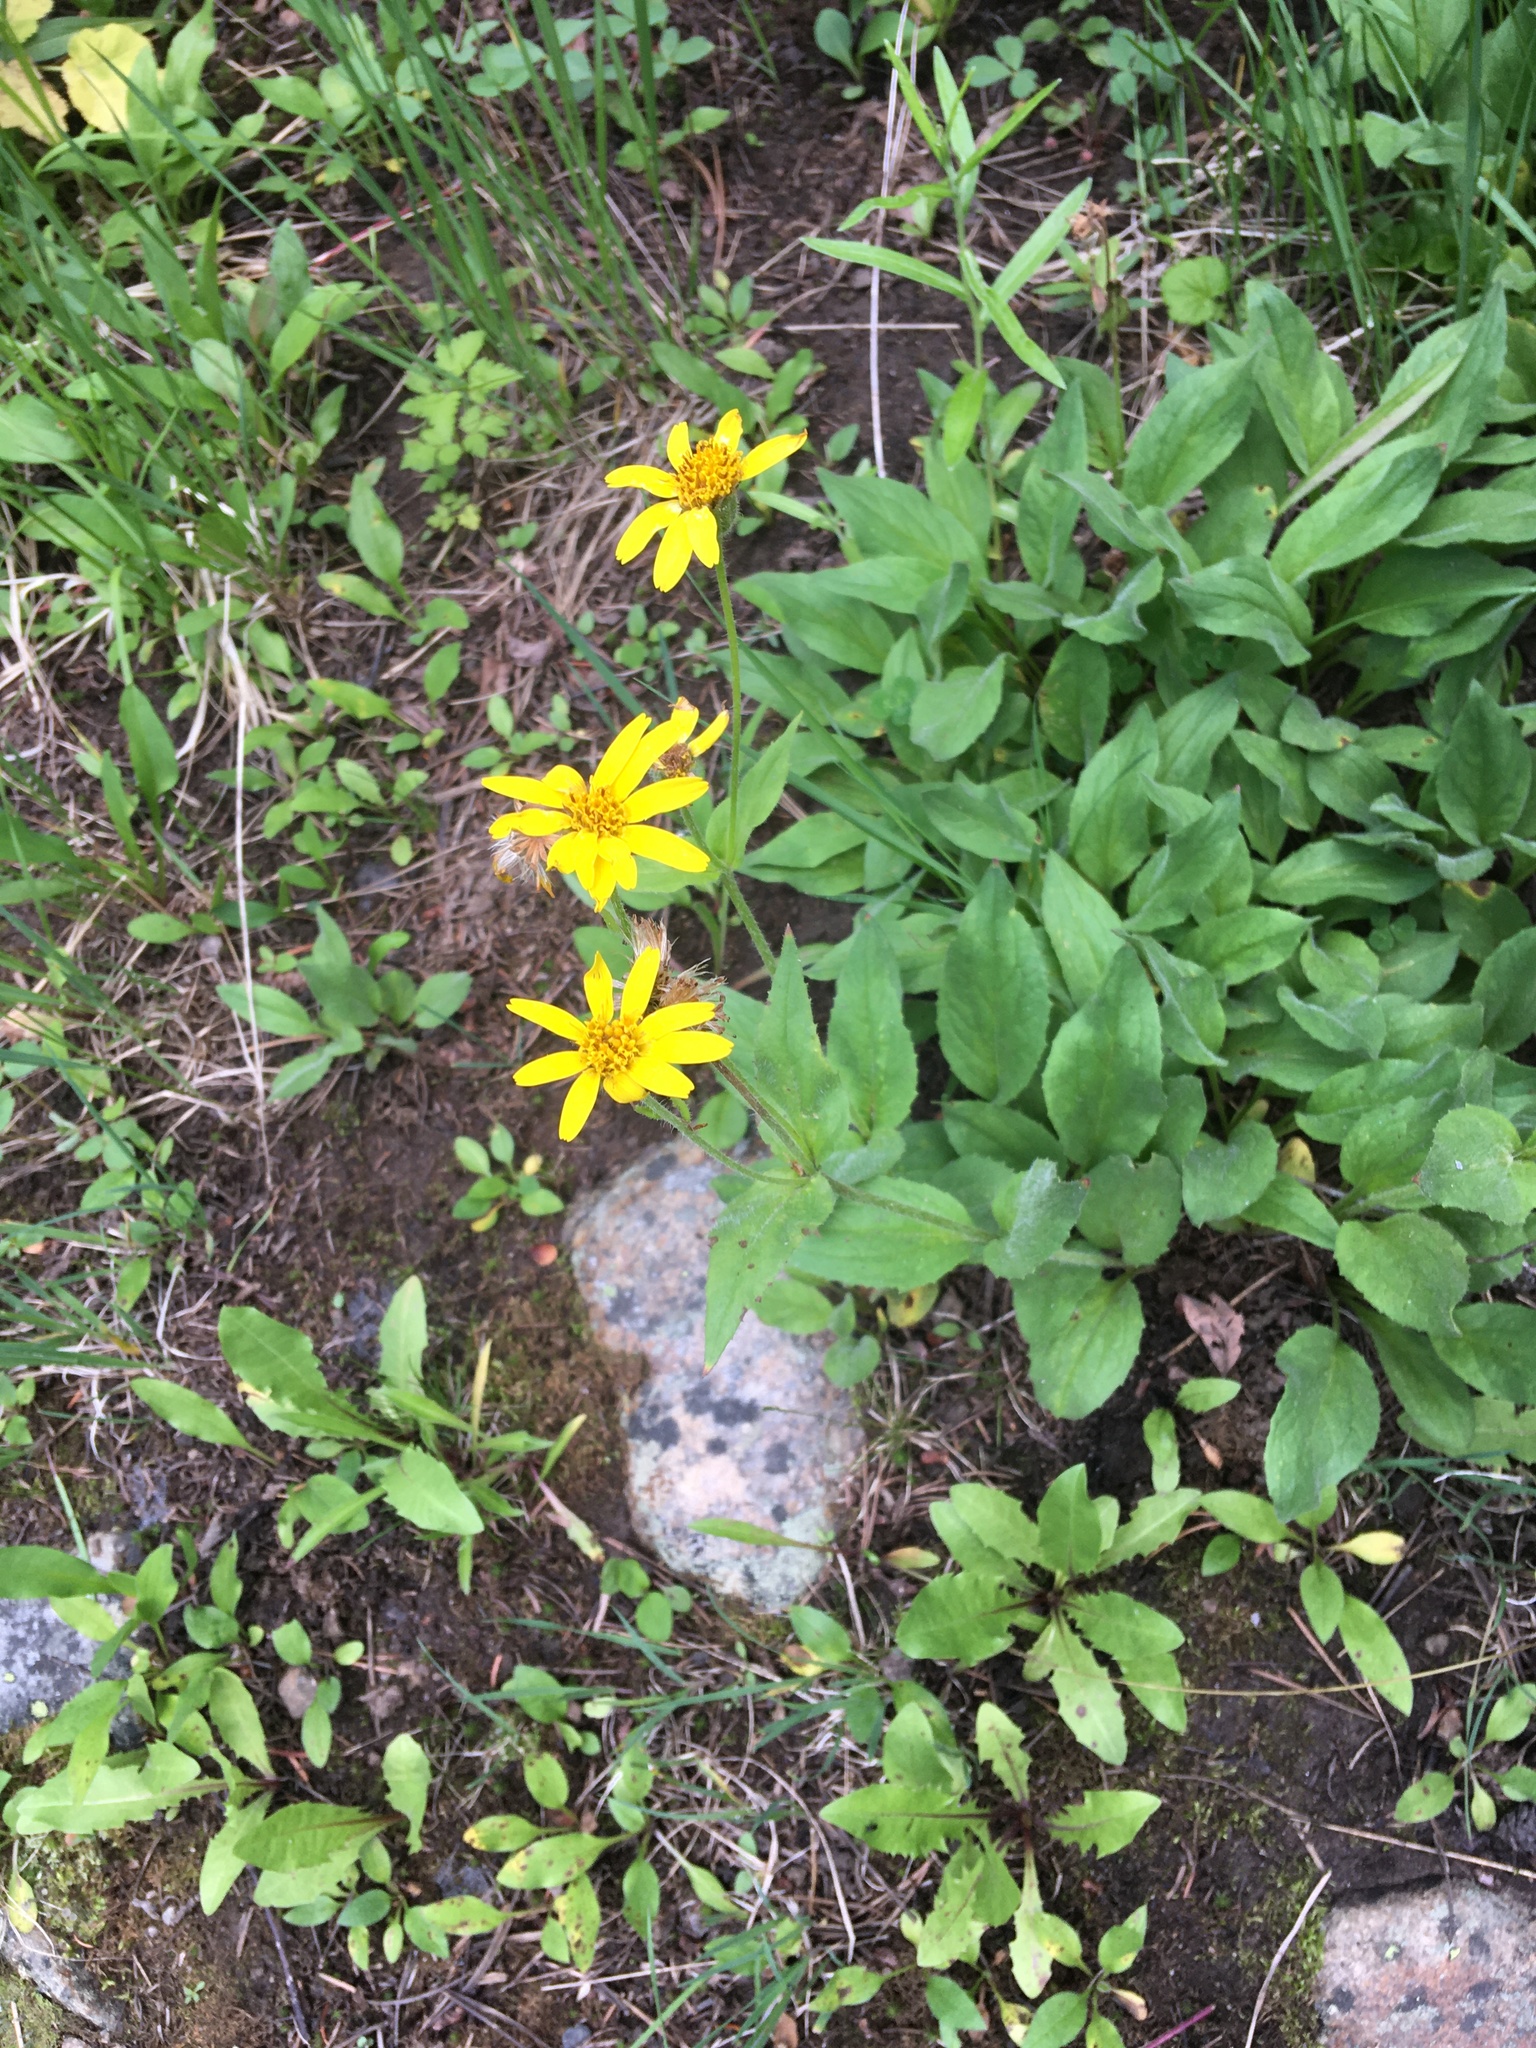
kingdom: Plantae
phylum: Tracheophyta
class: Magnoliopsida
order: Asterales
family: Asteraceae
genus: Arnica
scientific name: Arnica cordifolia
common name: Heart-leaf arnica
